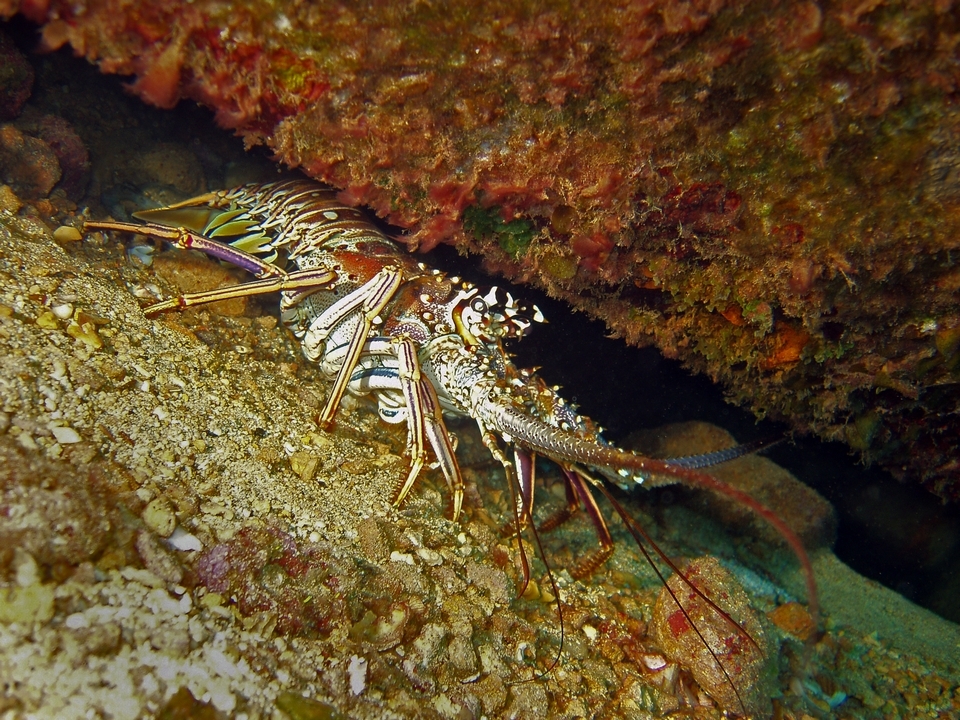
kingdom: Animalia
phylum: Arthropoda
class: Malacostraca
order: Decapoda
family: Palinuridae
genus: Panulirus
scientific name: Panulirus argus
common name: Caribbean spiny lobster
